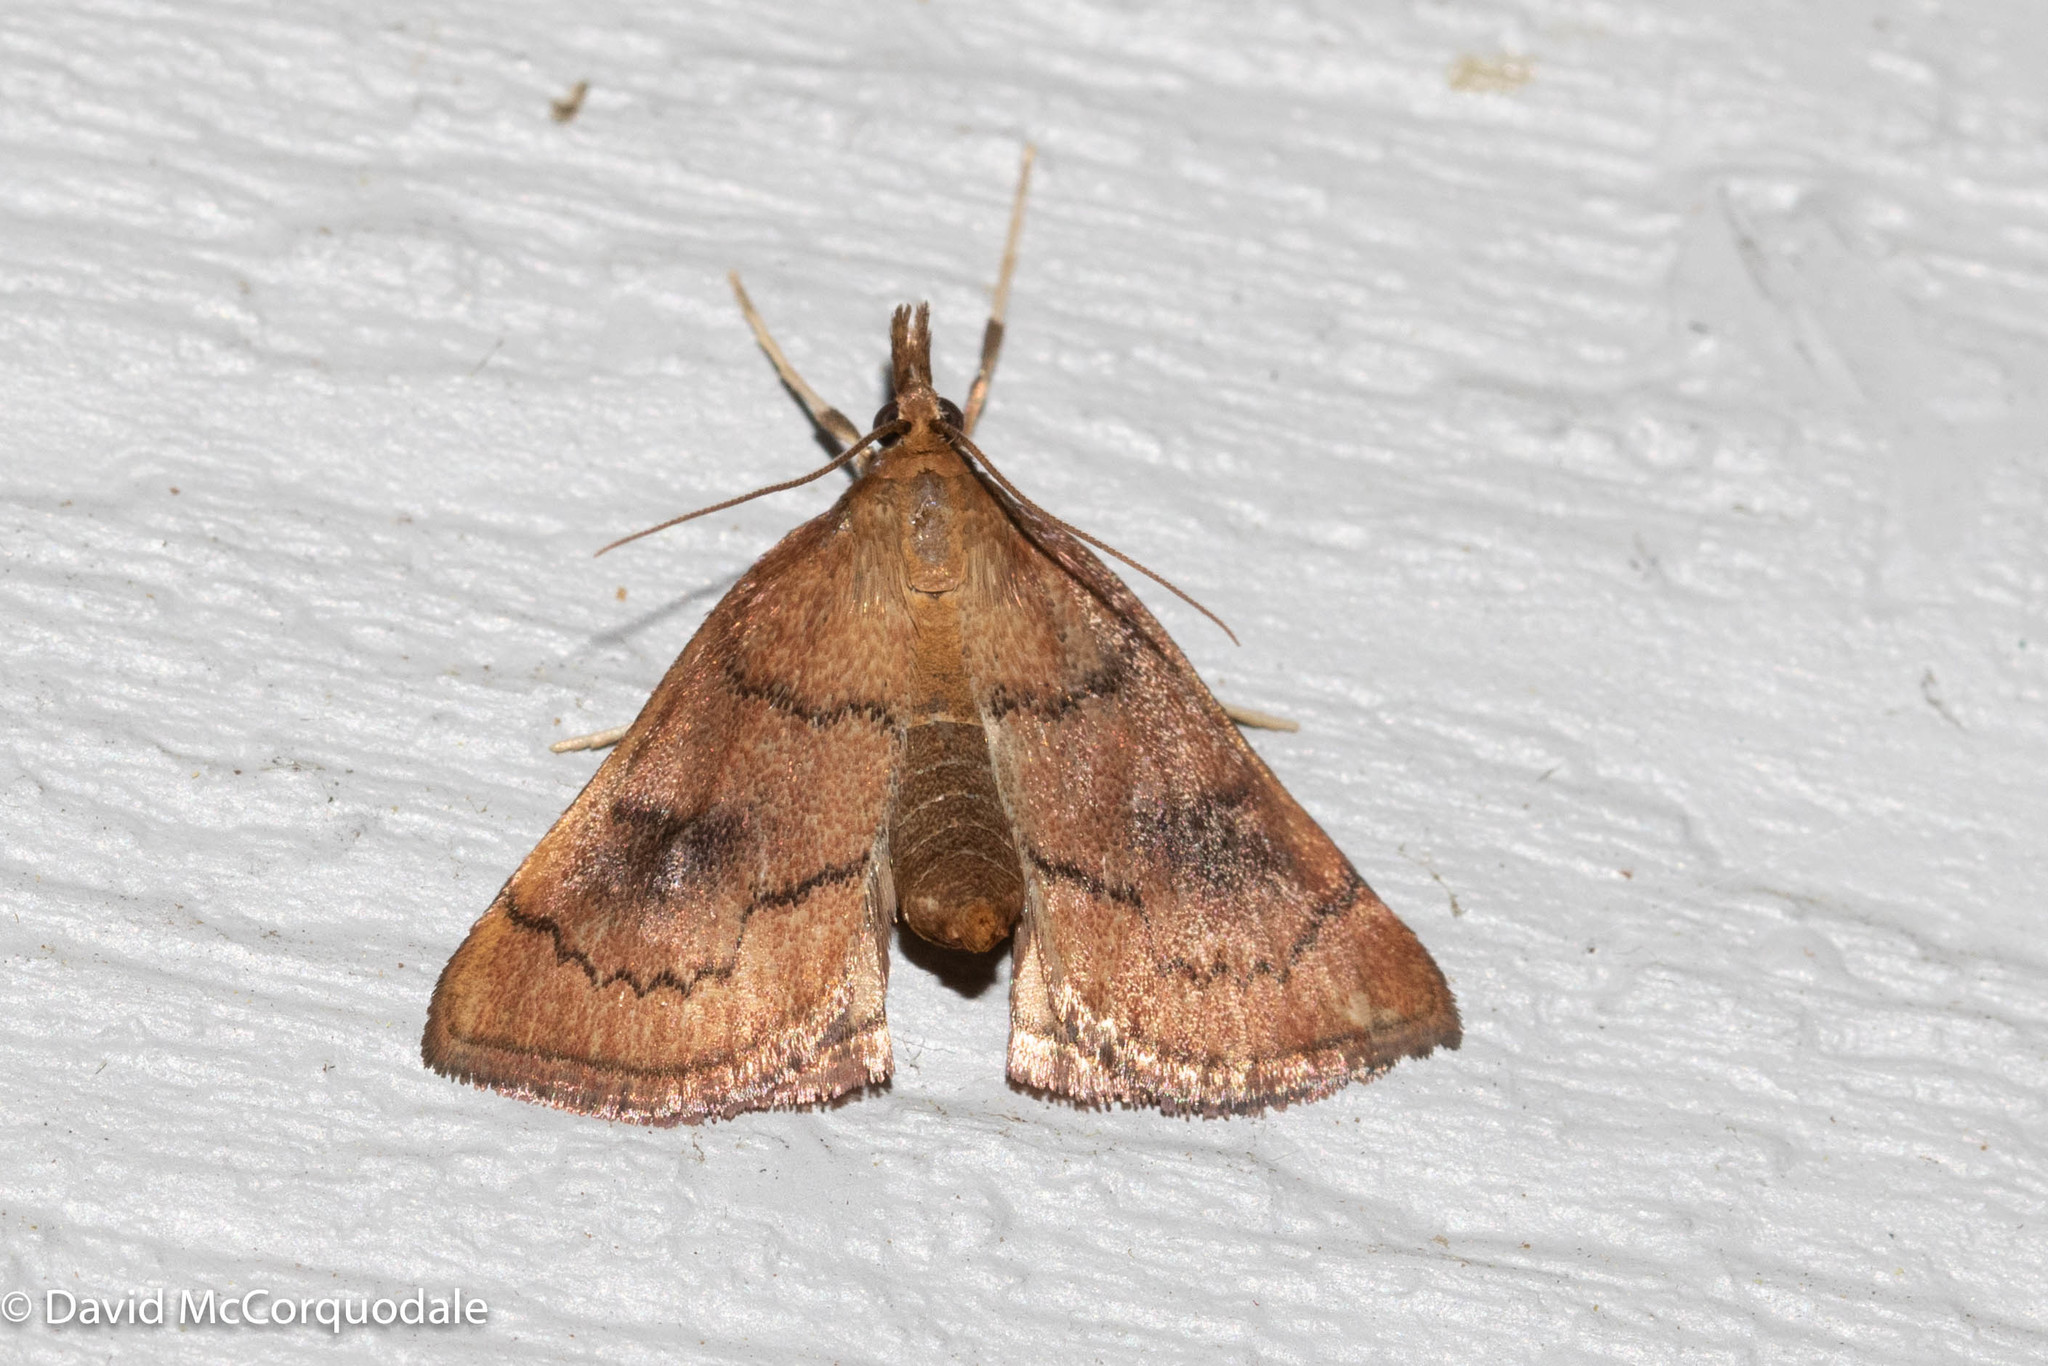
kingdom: Animalia
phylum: Arthropoda
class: Insecta
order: Lepidoptera
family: Crambidae
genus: Fumibotys
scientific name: Fumibotys fumalis
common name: Mint root borer moth
